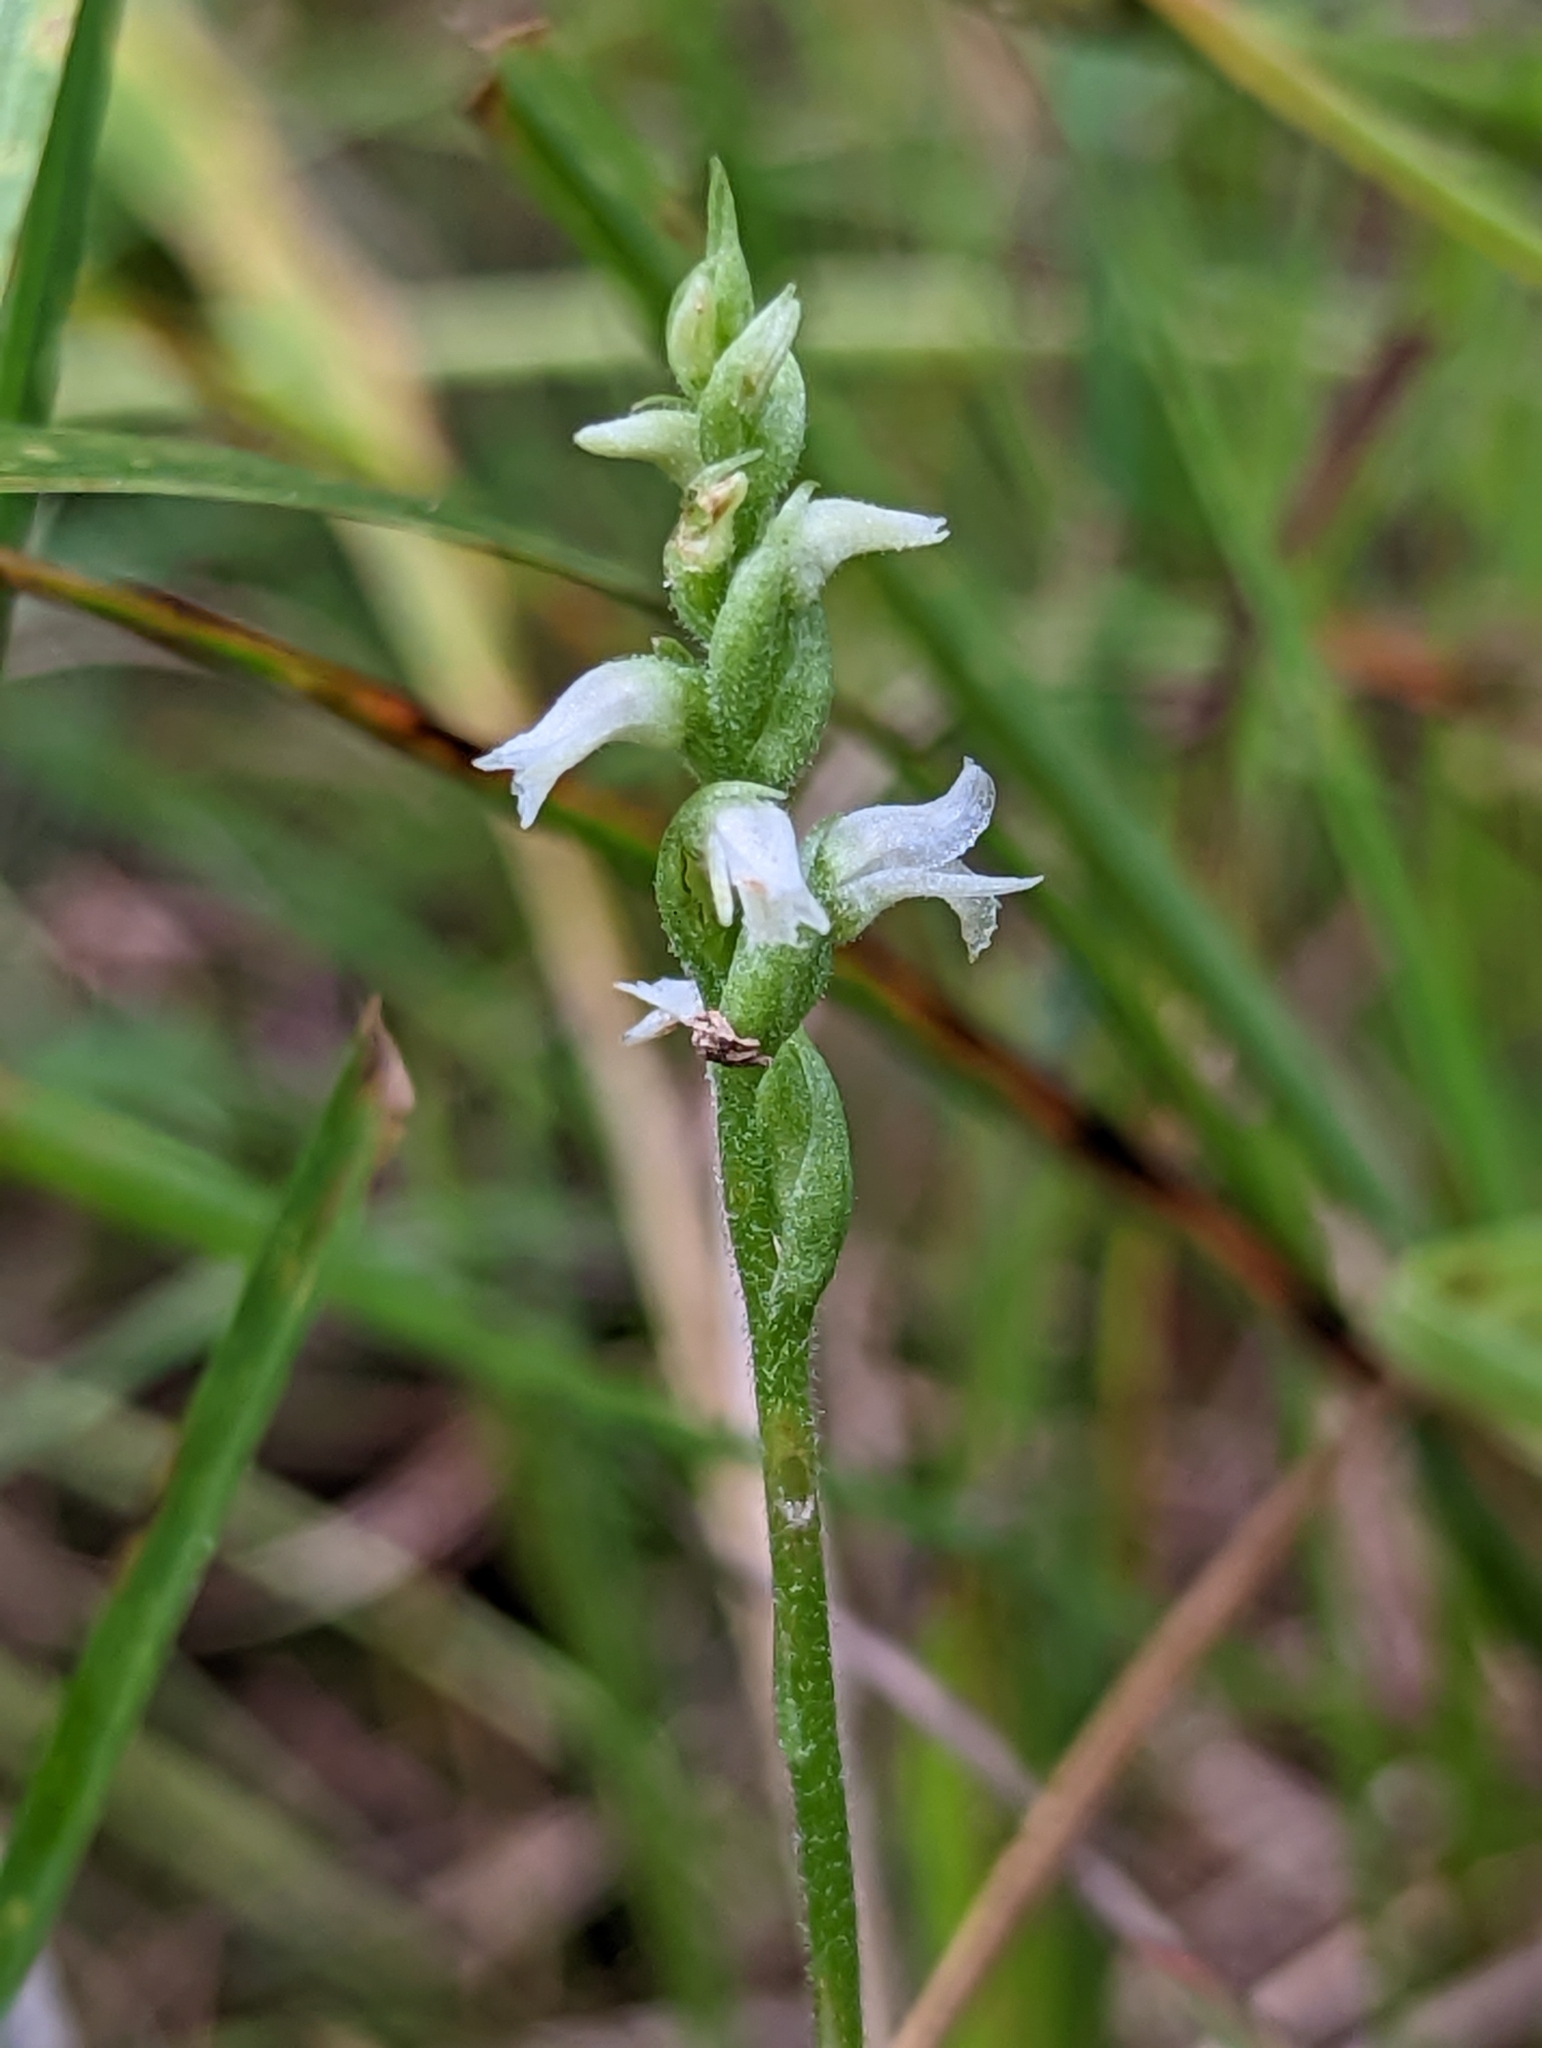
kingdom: Plantae
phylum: Tracheophyta
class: Liliopsida
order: Asparagales
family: Orchidaceae
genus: Spiranthes
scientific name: Spiranthes ovalis
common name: October ladies'-tresses
